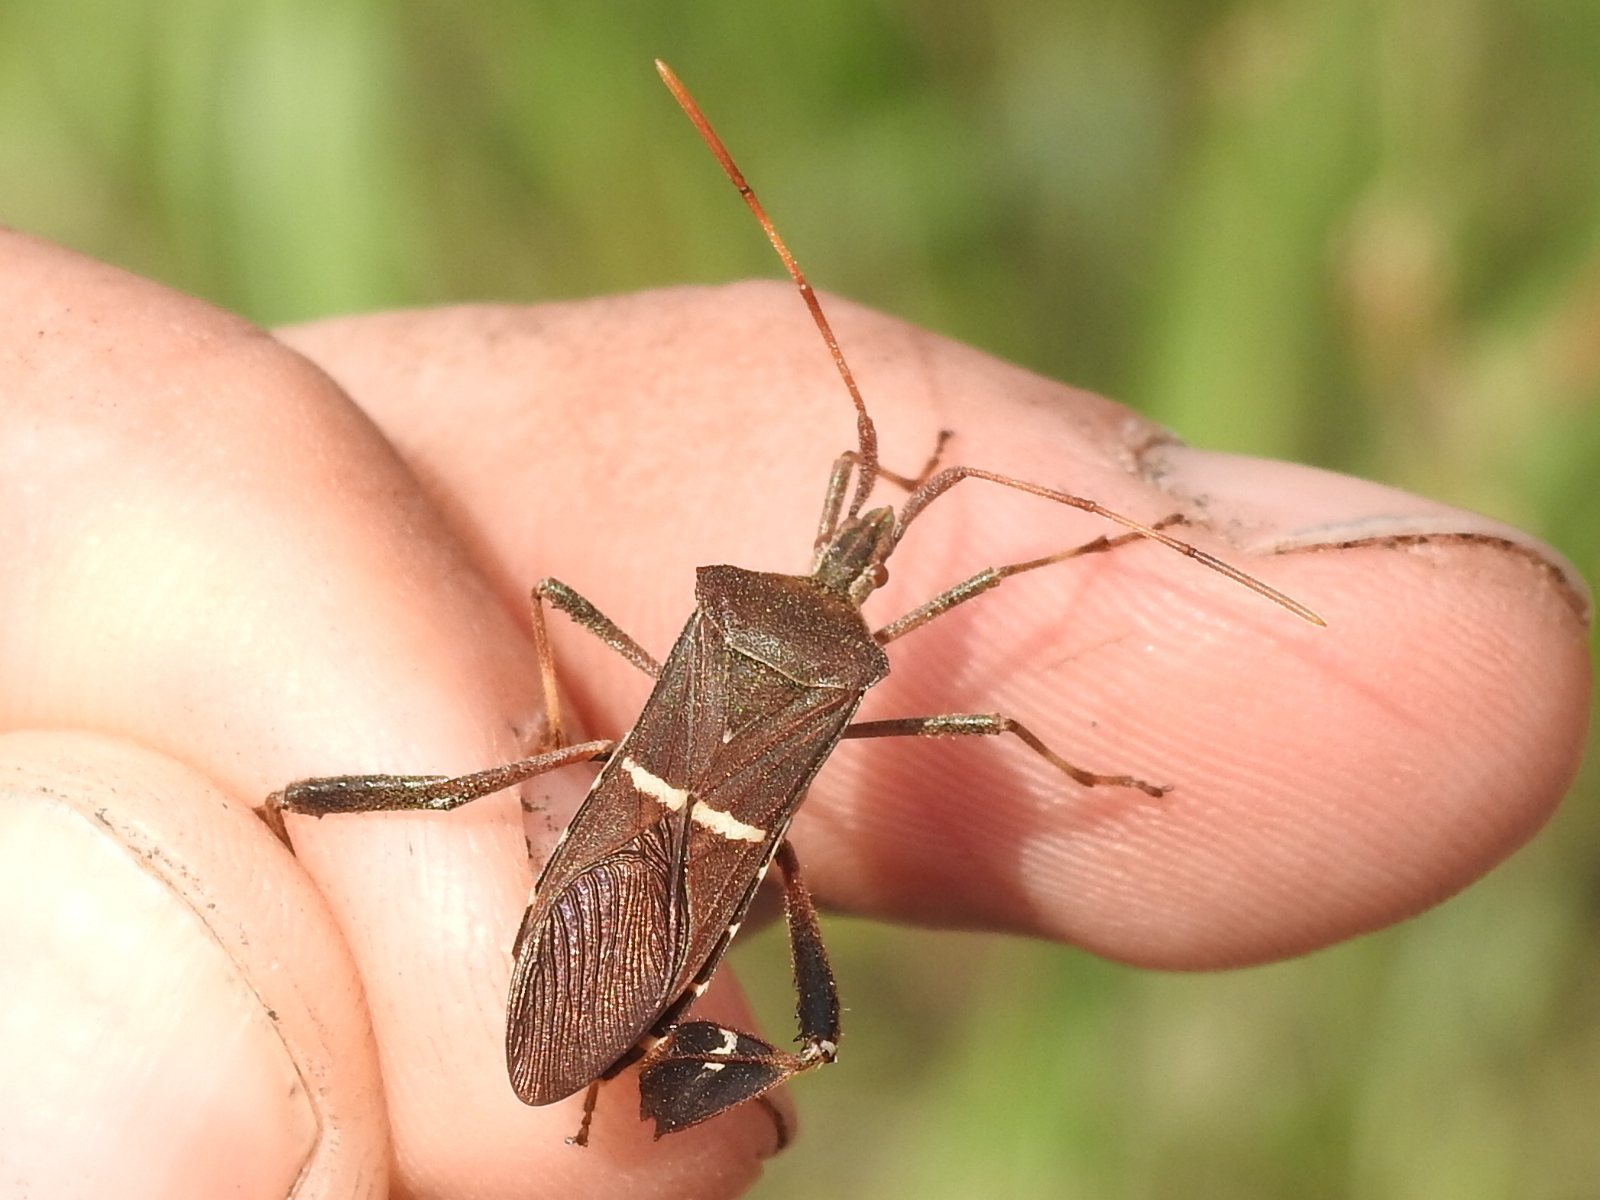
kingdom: Animalia
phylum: Arthropoda
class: Insecta
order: Hemiptera
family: Coreidae
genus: Leptoglossus
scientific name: Leptoglossus phyllopus
